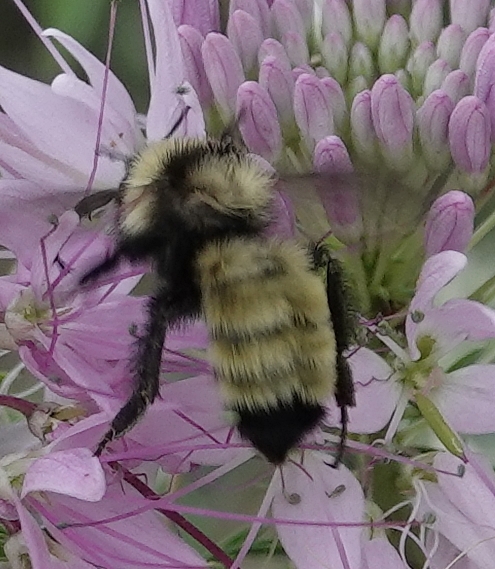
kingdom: Animalia
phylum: Arthropoda
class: Insecta
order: Hymenoptera
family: Apidae
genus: Bombus
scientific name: Bombus fervidus
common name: Yellow bumble bee
